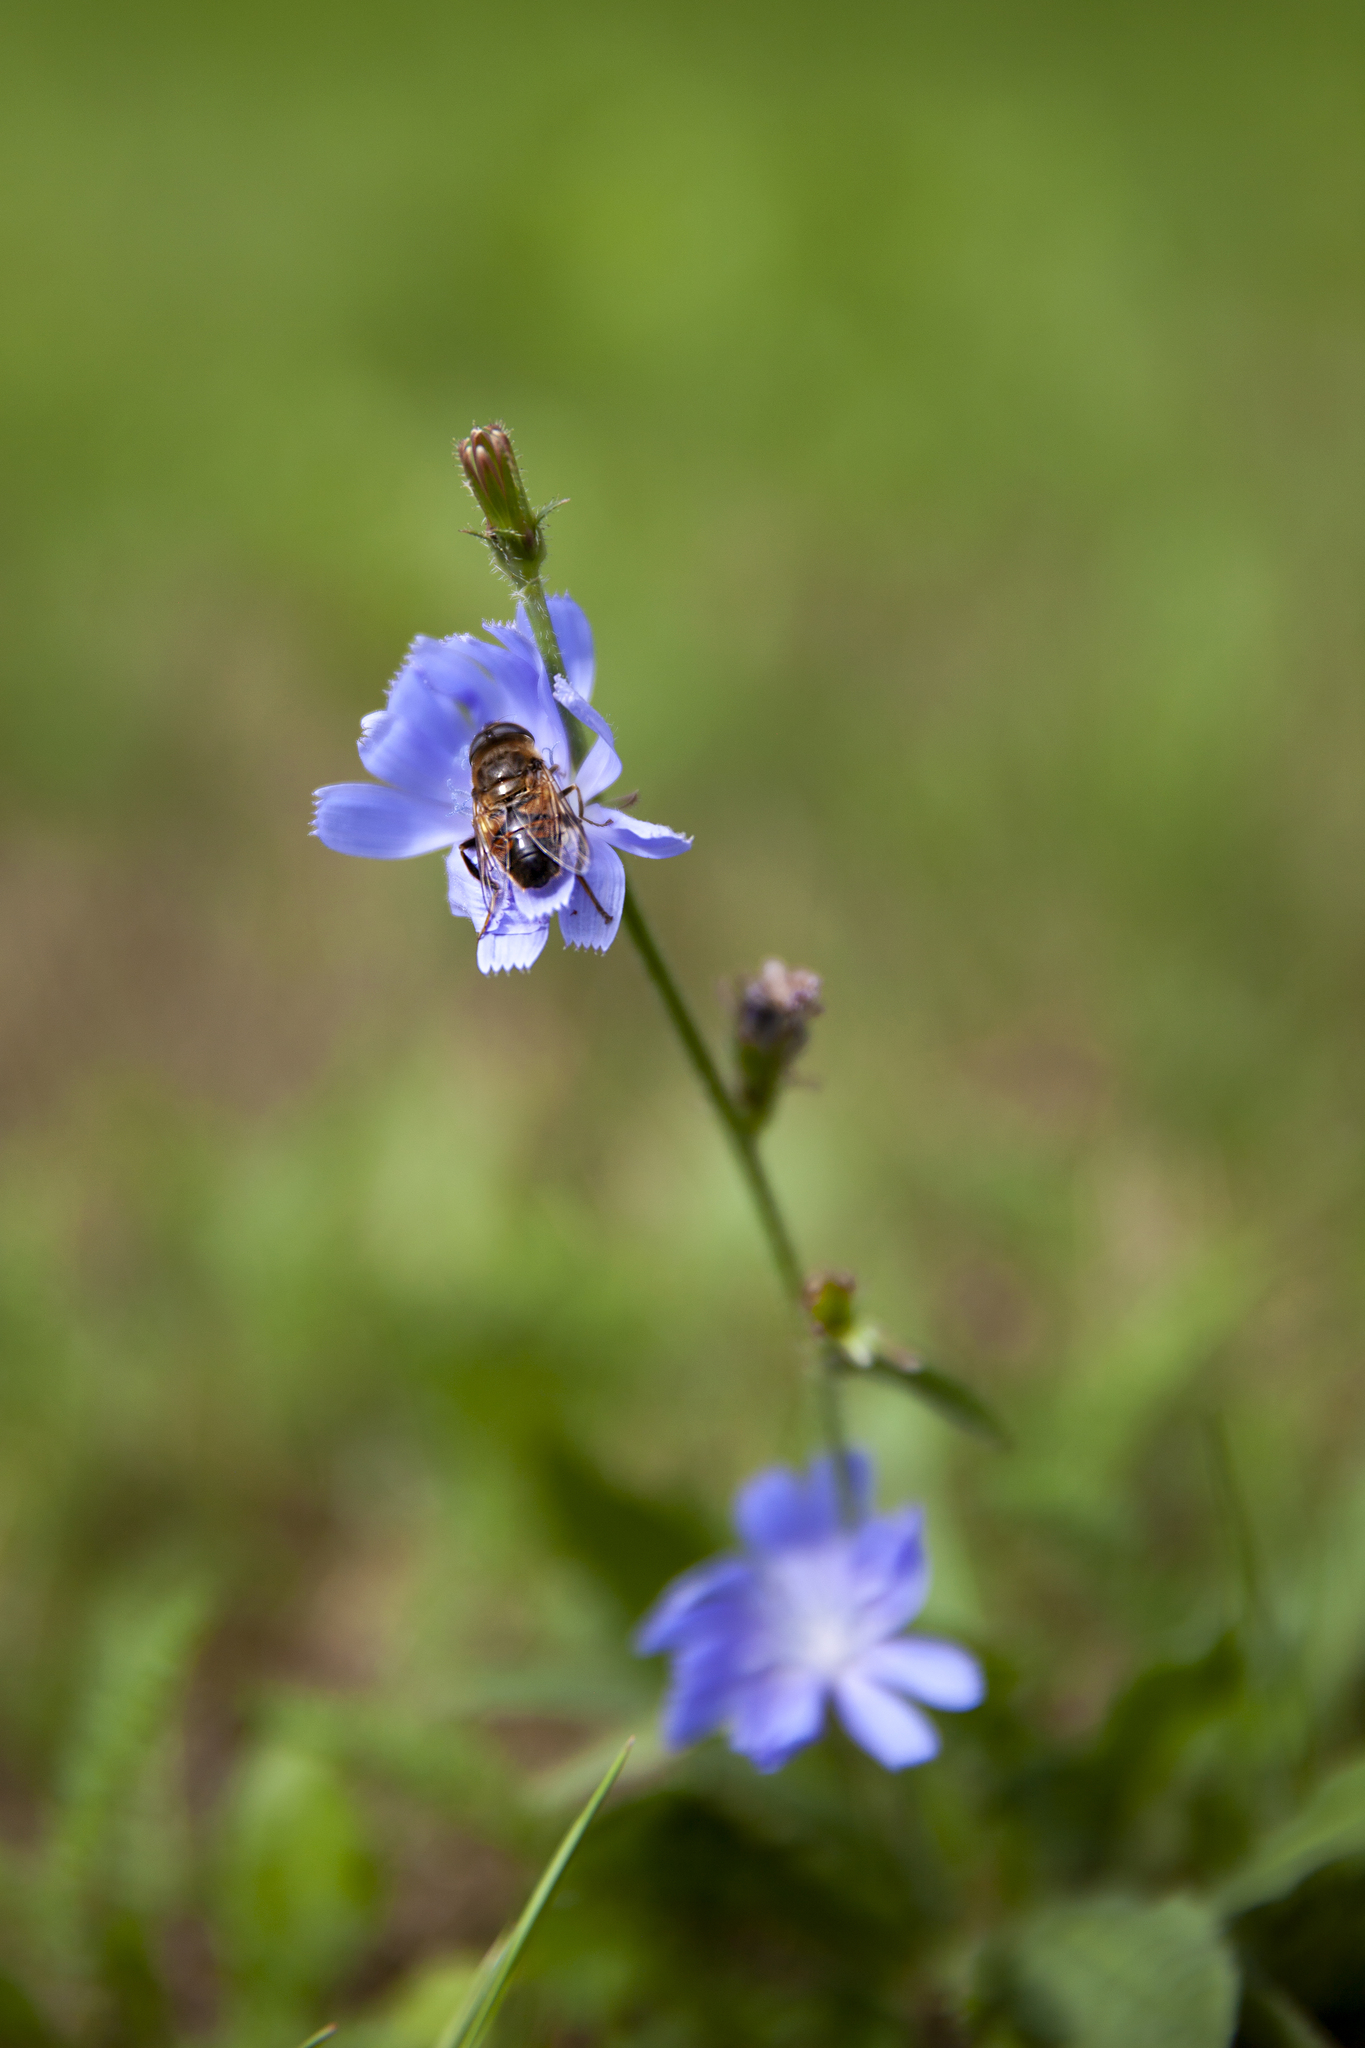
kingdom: Animalia
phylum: Arthropoda
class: Insecta
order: Diptera
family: Syrphidae
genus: Eristalis
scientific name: Eristalis tenax
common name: Drone fly
